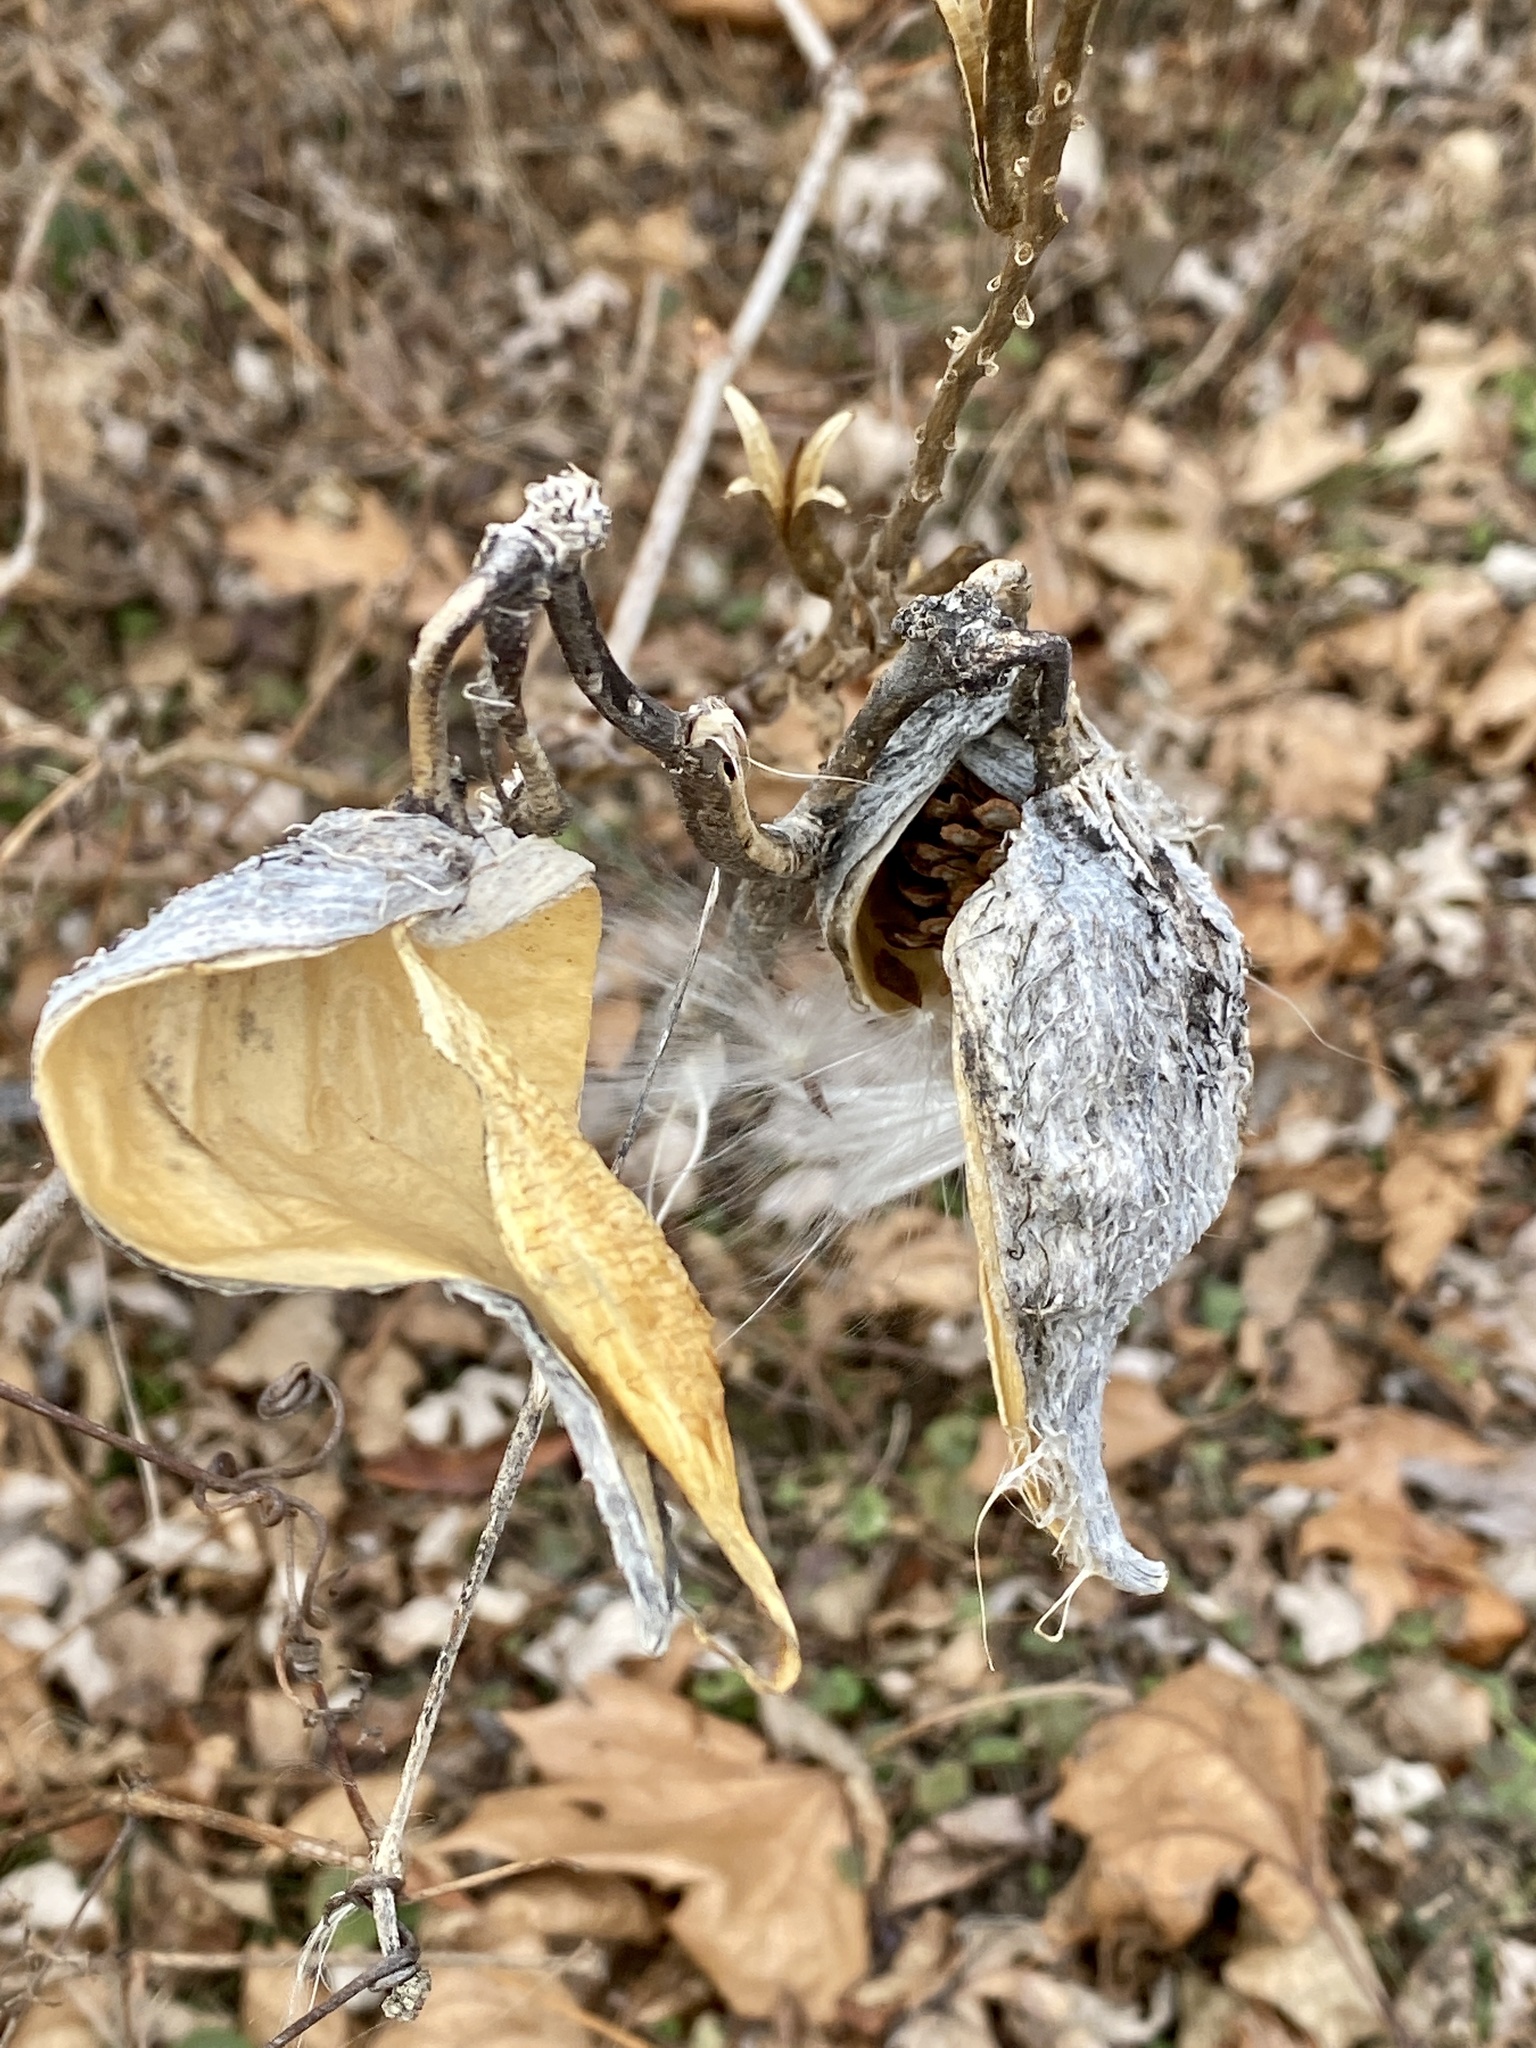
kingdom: Plantae
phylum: Tracheophyta
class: Magnoliopsida
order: Gentianales
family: Apocynaceae
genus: Asclepias
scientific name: Asclepias syriaca
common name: Common milkweed
